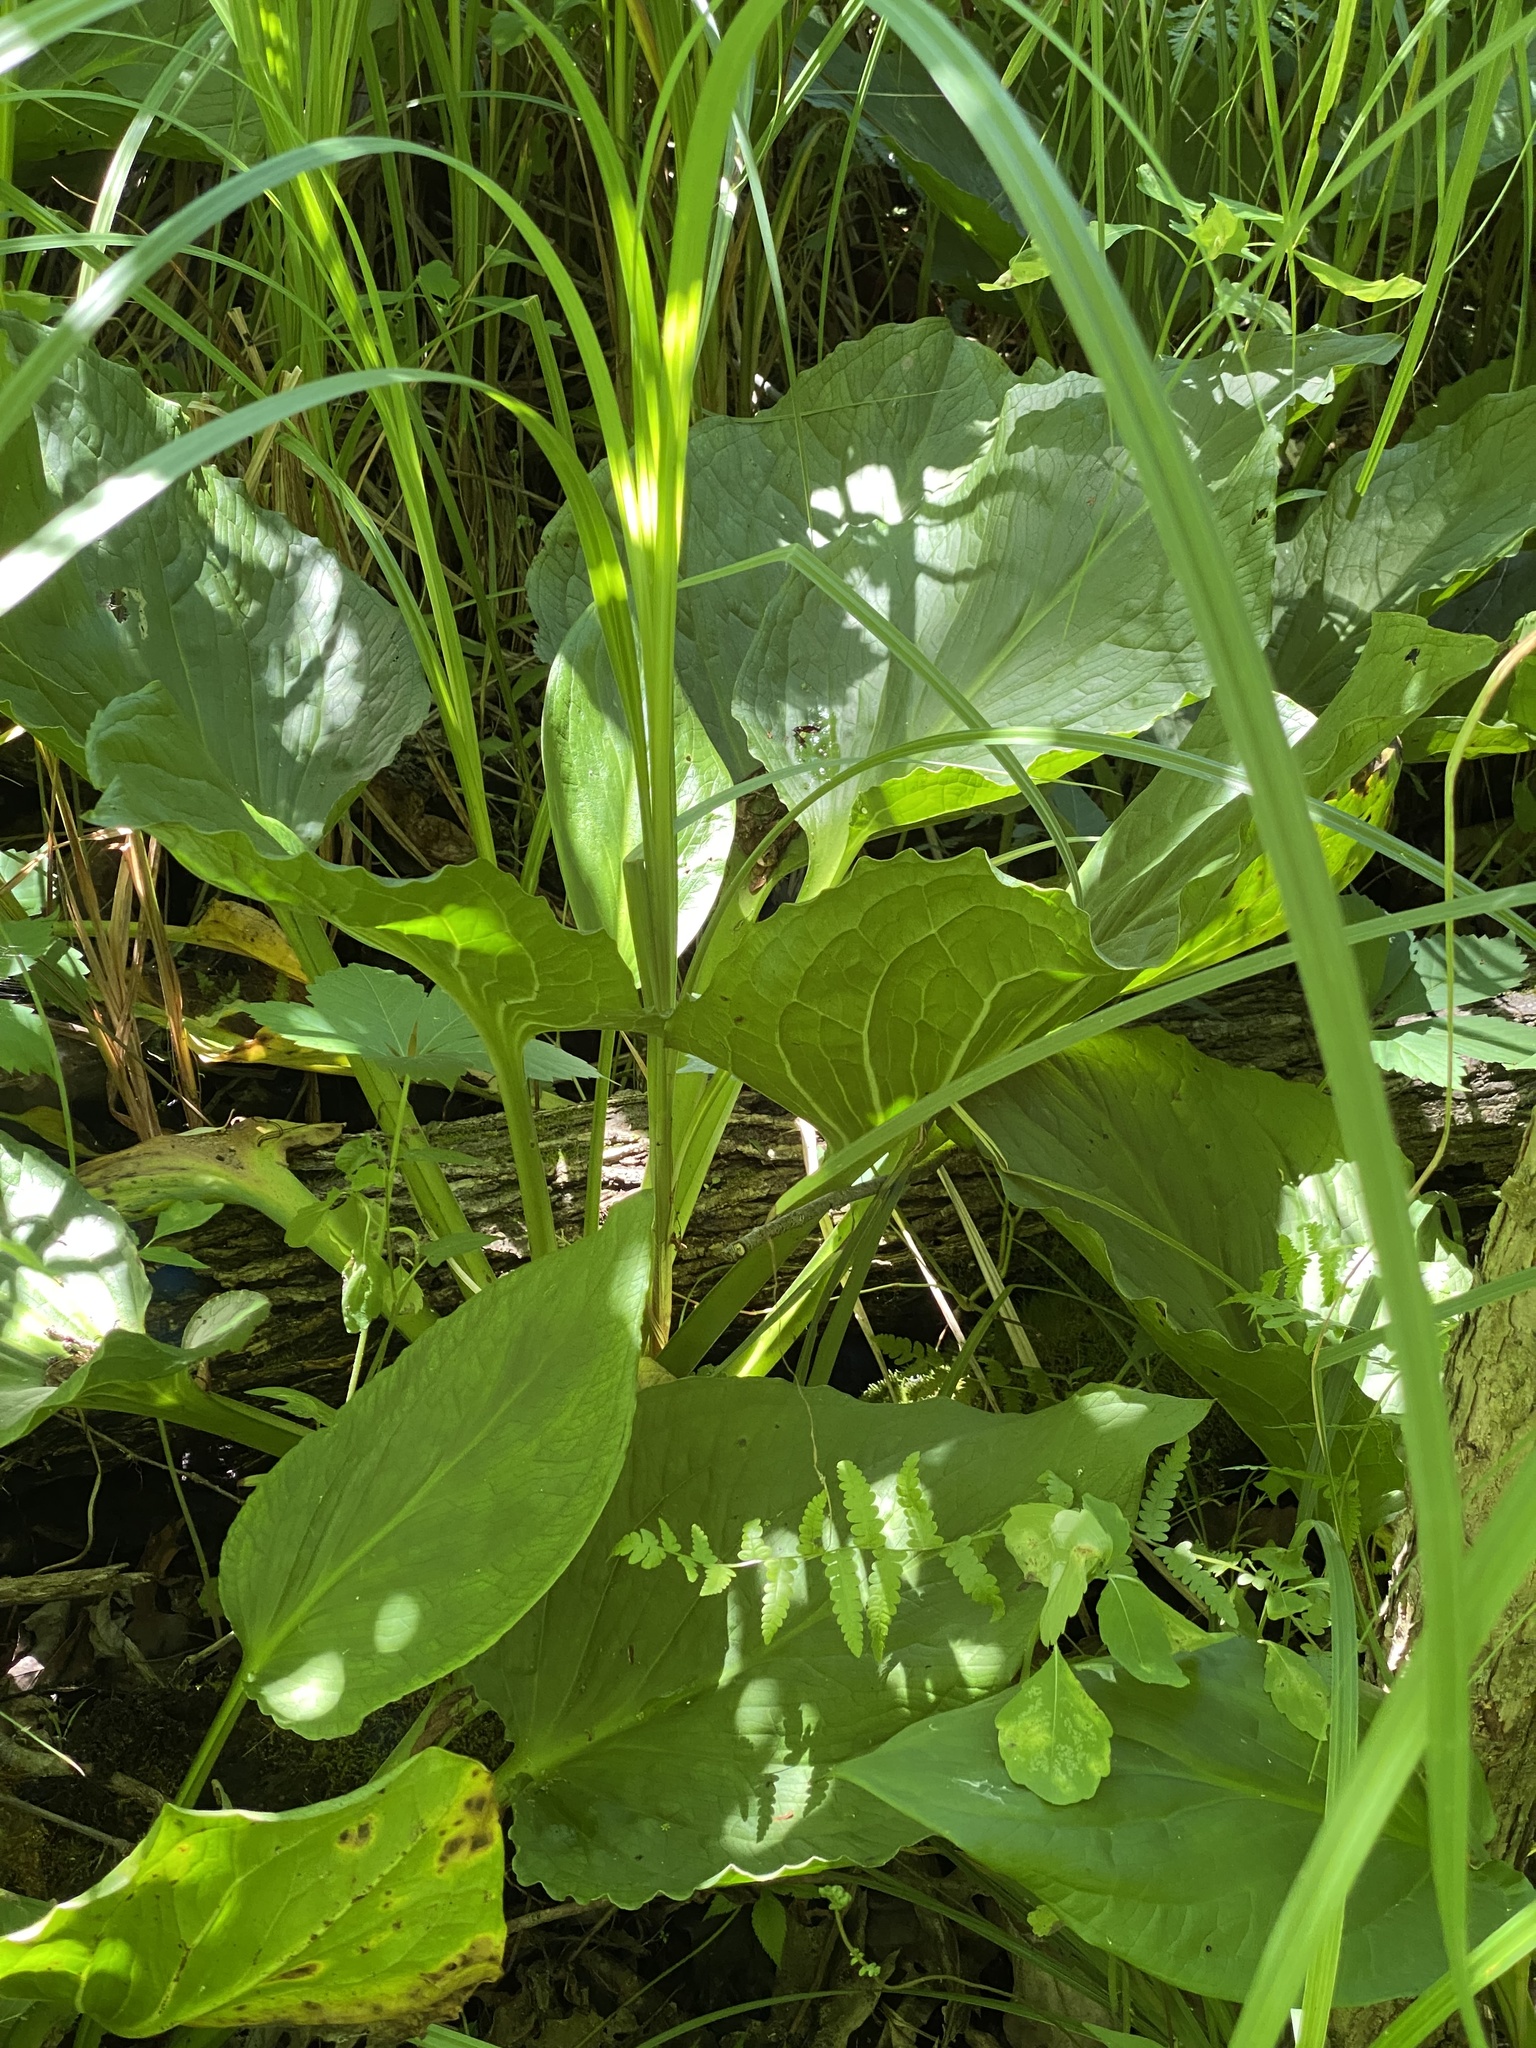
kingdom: Plantae
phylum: Tracheophyta
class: Liliopsida
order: Alismatales
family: Araceae
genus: Symplocarpus
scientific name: Symplocarpus foetidus
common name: Eastern skunk cabbage
